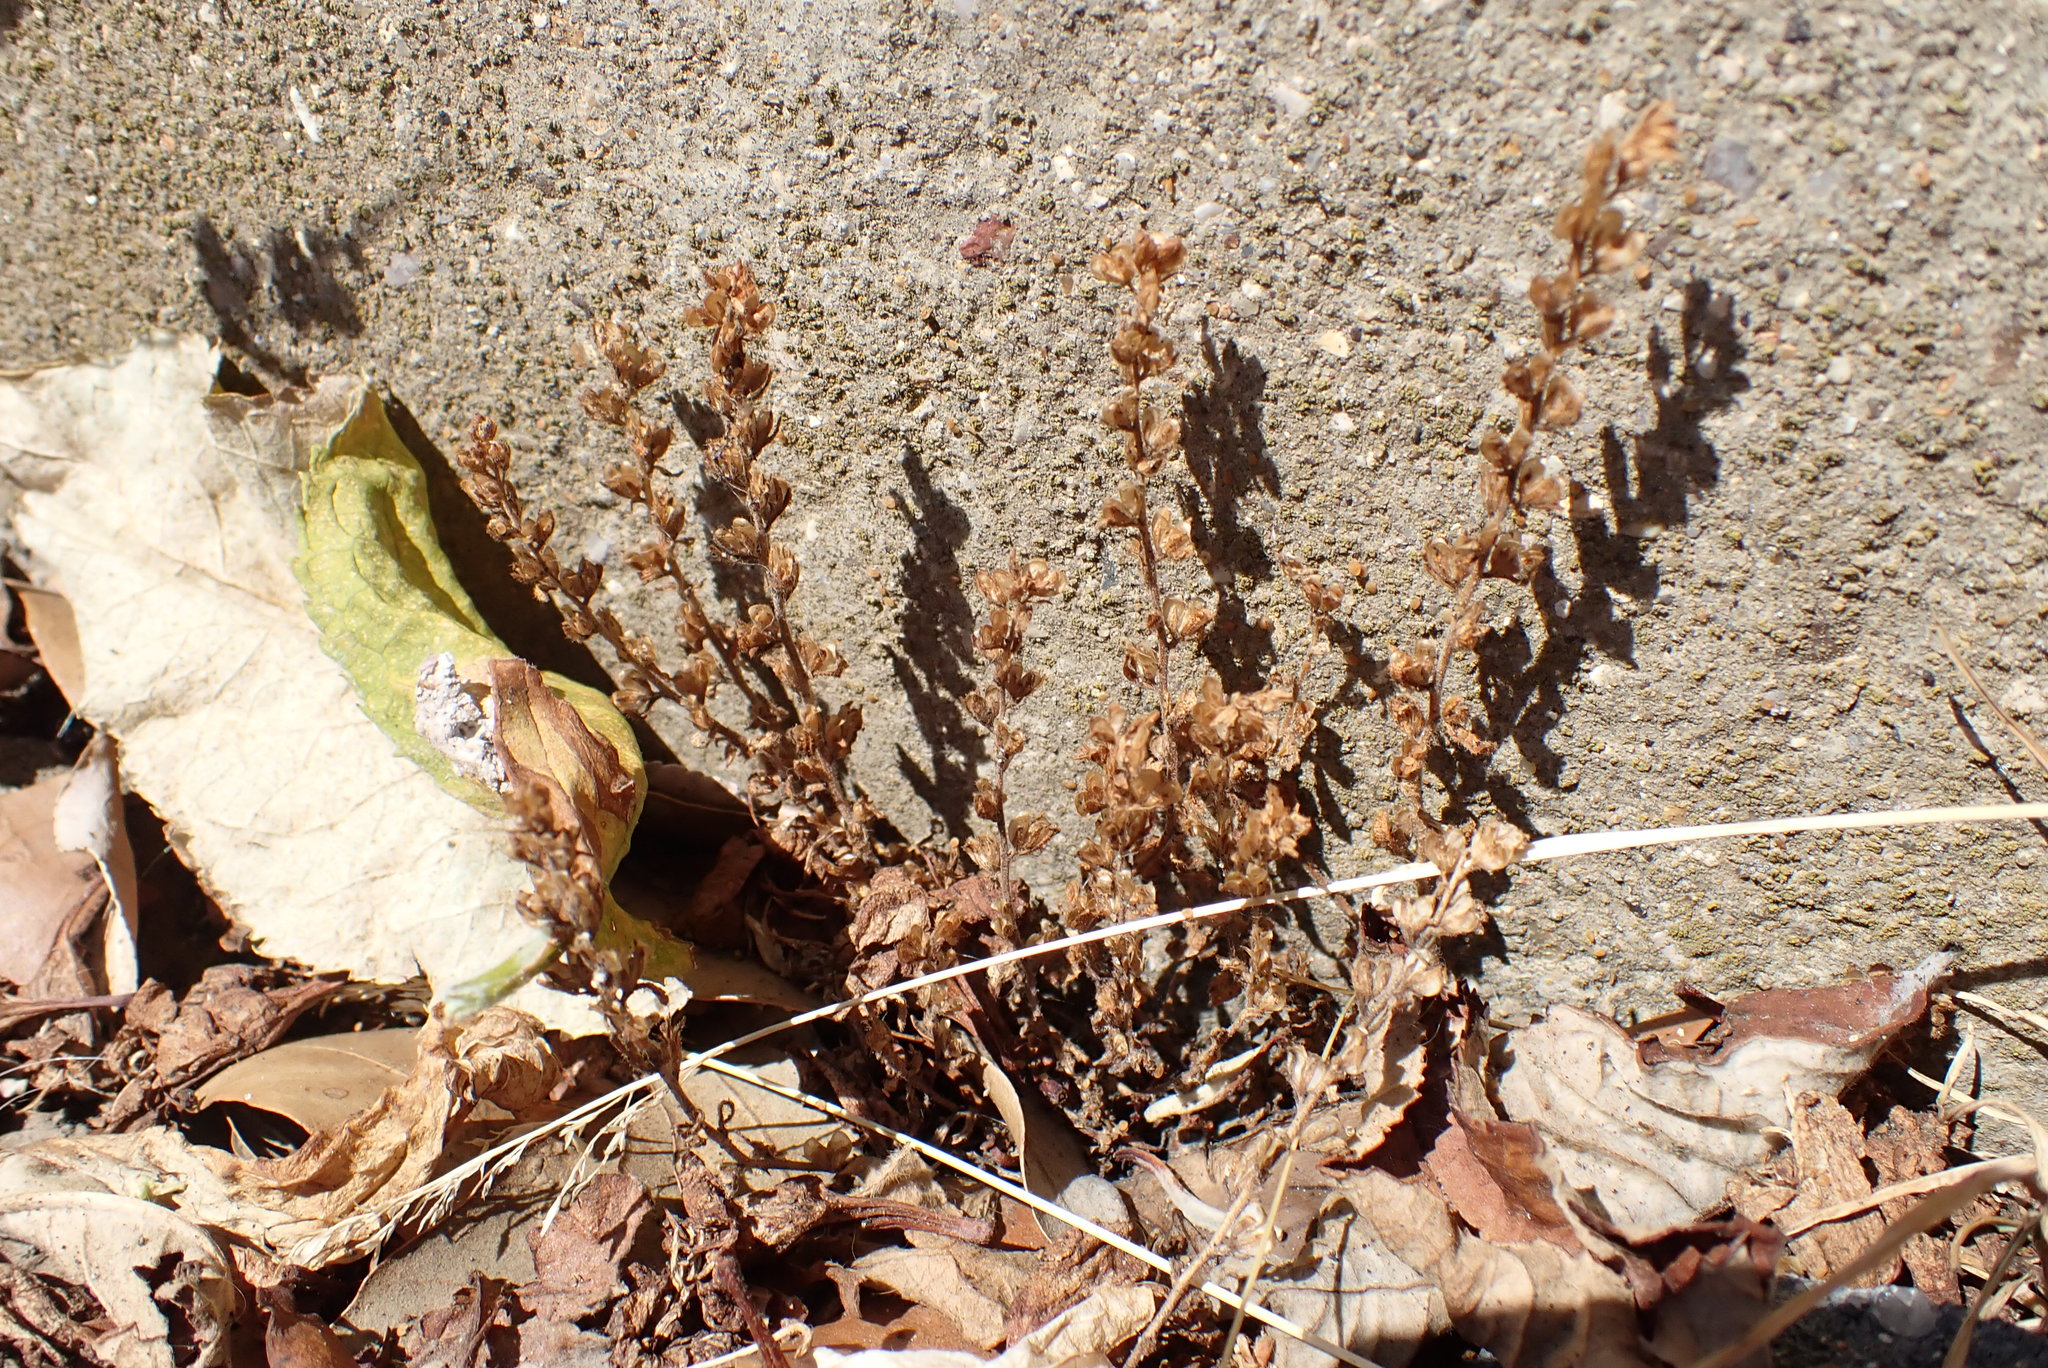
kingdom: Plantae
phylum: Tracheophyta
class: Magnoliopsida
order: Lamiales
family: Plantaginaceae
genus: Veronica
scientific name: Veronica arvensis
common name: Corn speedwell
